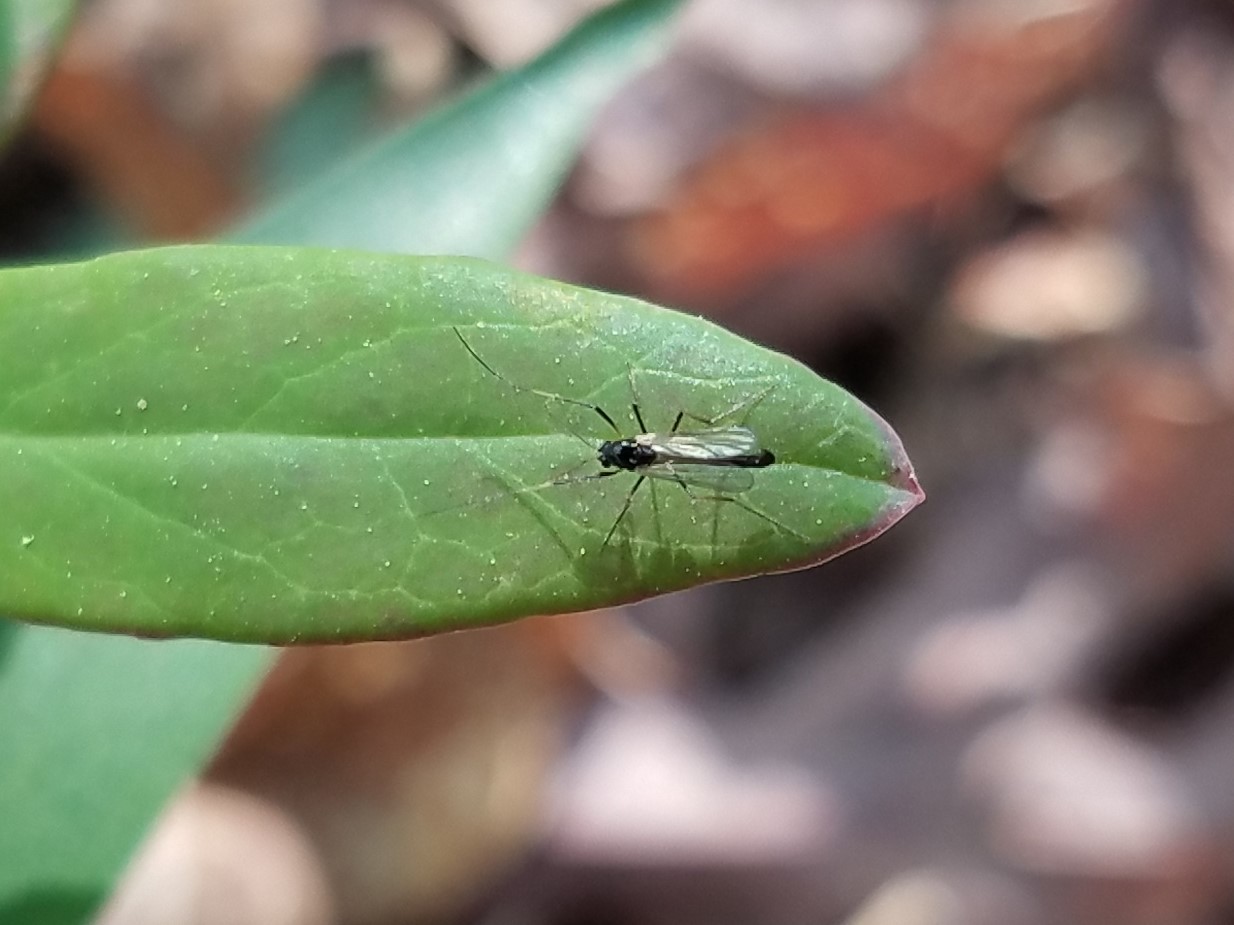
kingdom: Animalia
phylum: Arthropoda
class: Insecta
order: Diptera
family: Chironomidae
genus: Paratendipes
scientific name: Paratendipes albimanus
